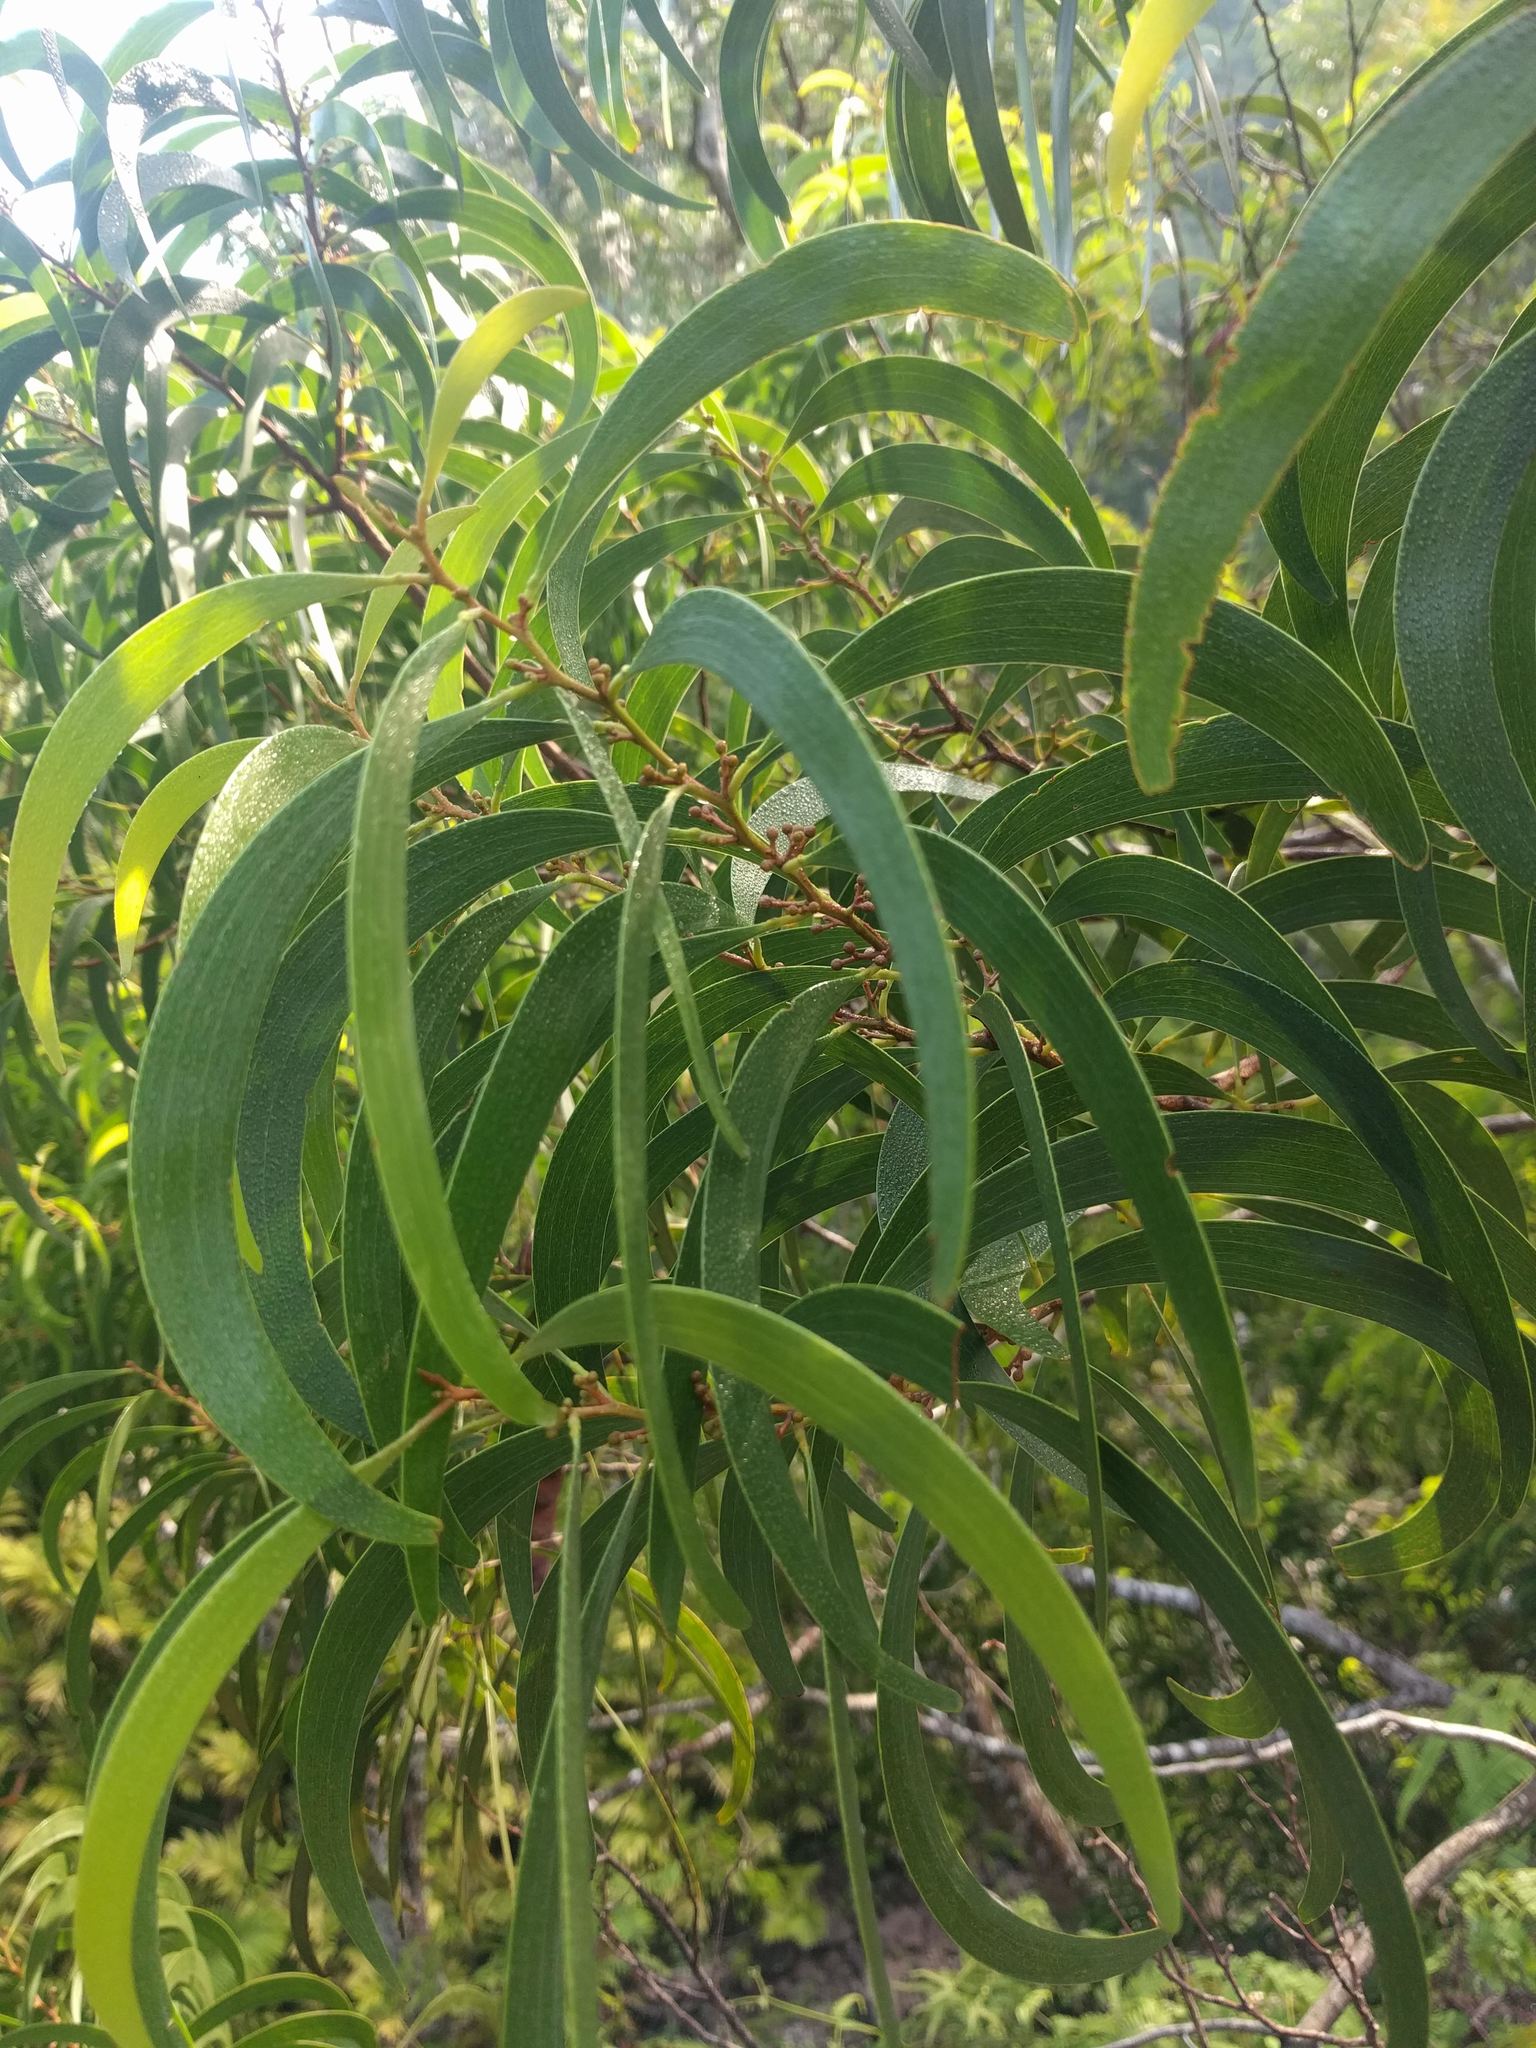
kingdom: Plantae
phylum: Tracheophyta
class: Magnoliopsida
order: Fabales
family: Fabaceae
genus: Acacia
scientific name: Acacia koa
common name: Gray koa
